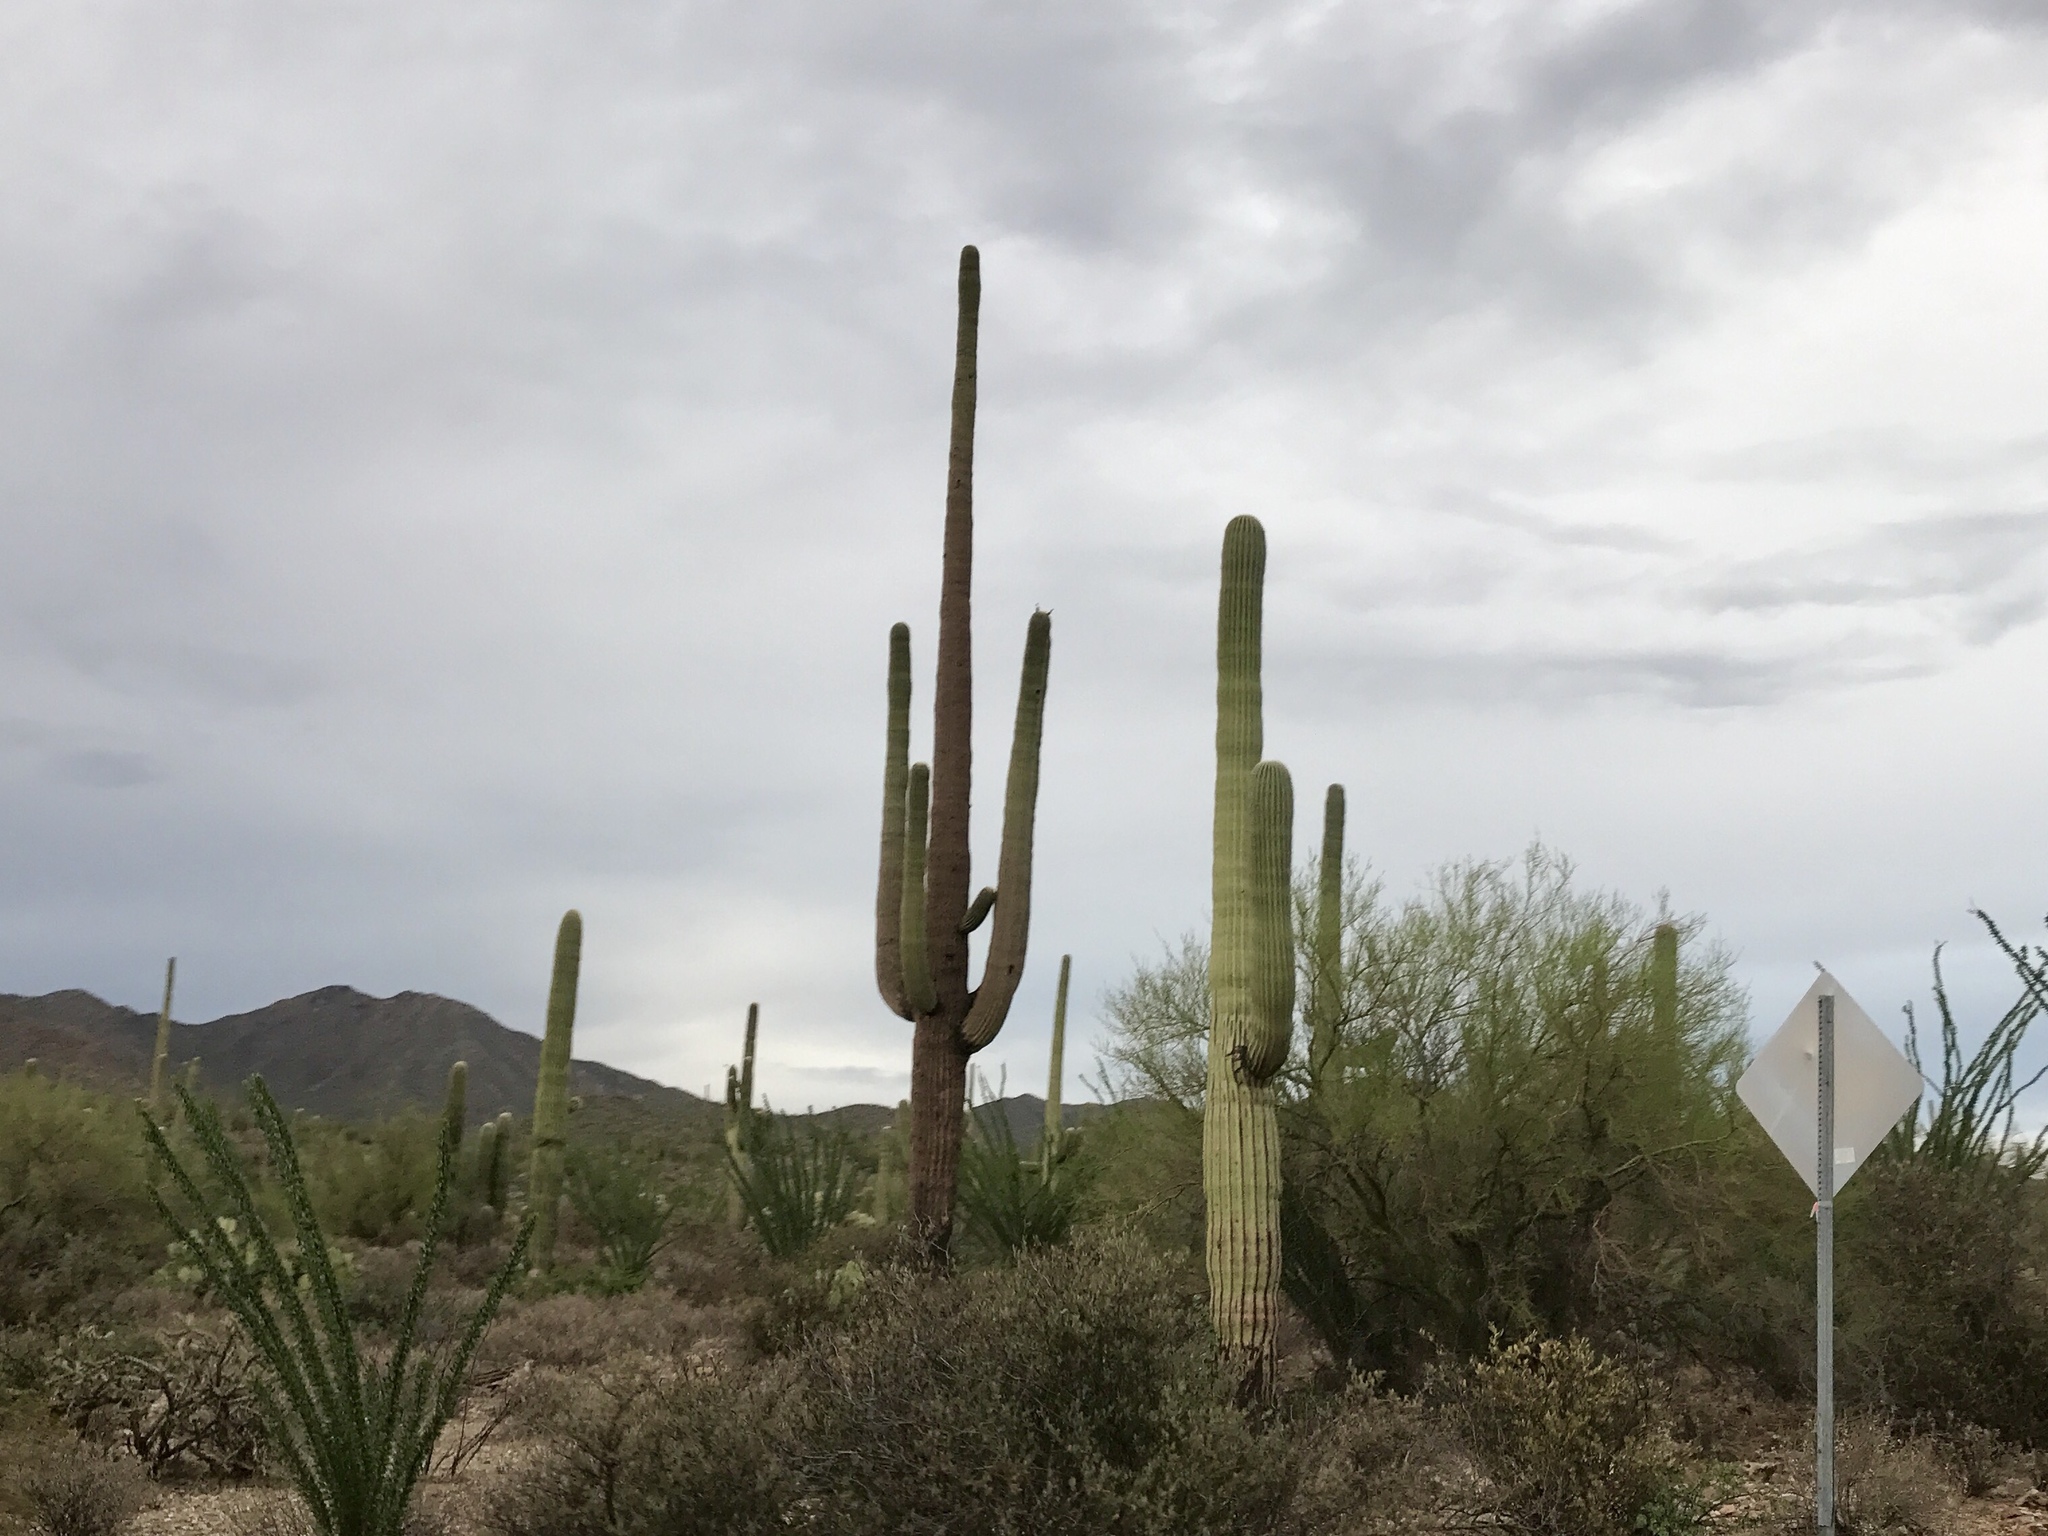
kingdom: Plantae
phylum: Tracheophyta
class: Magnoliopsida
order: Caryophyllales
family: Cactaceae
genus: Carnegiea
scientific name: Carnegiea gigantea
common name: Saguaro
